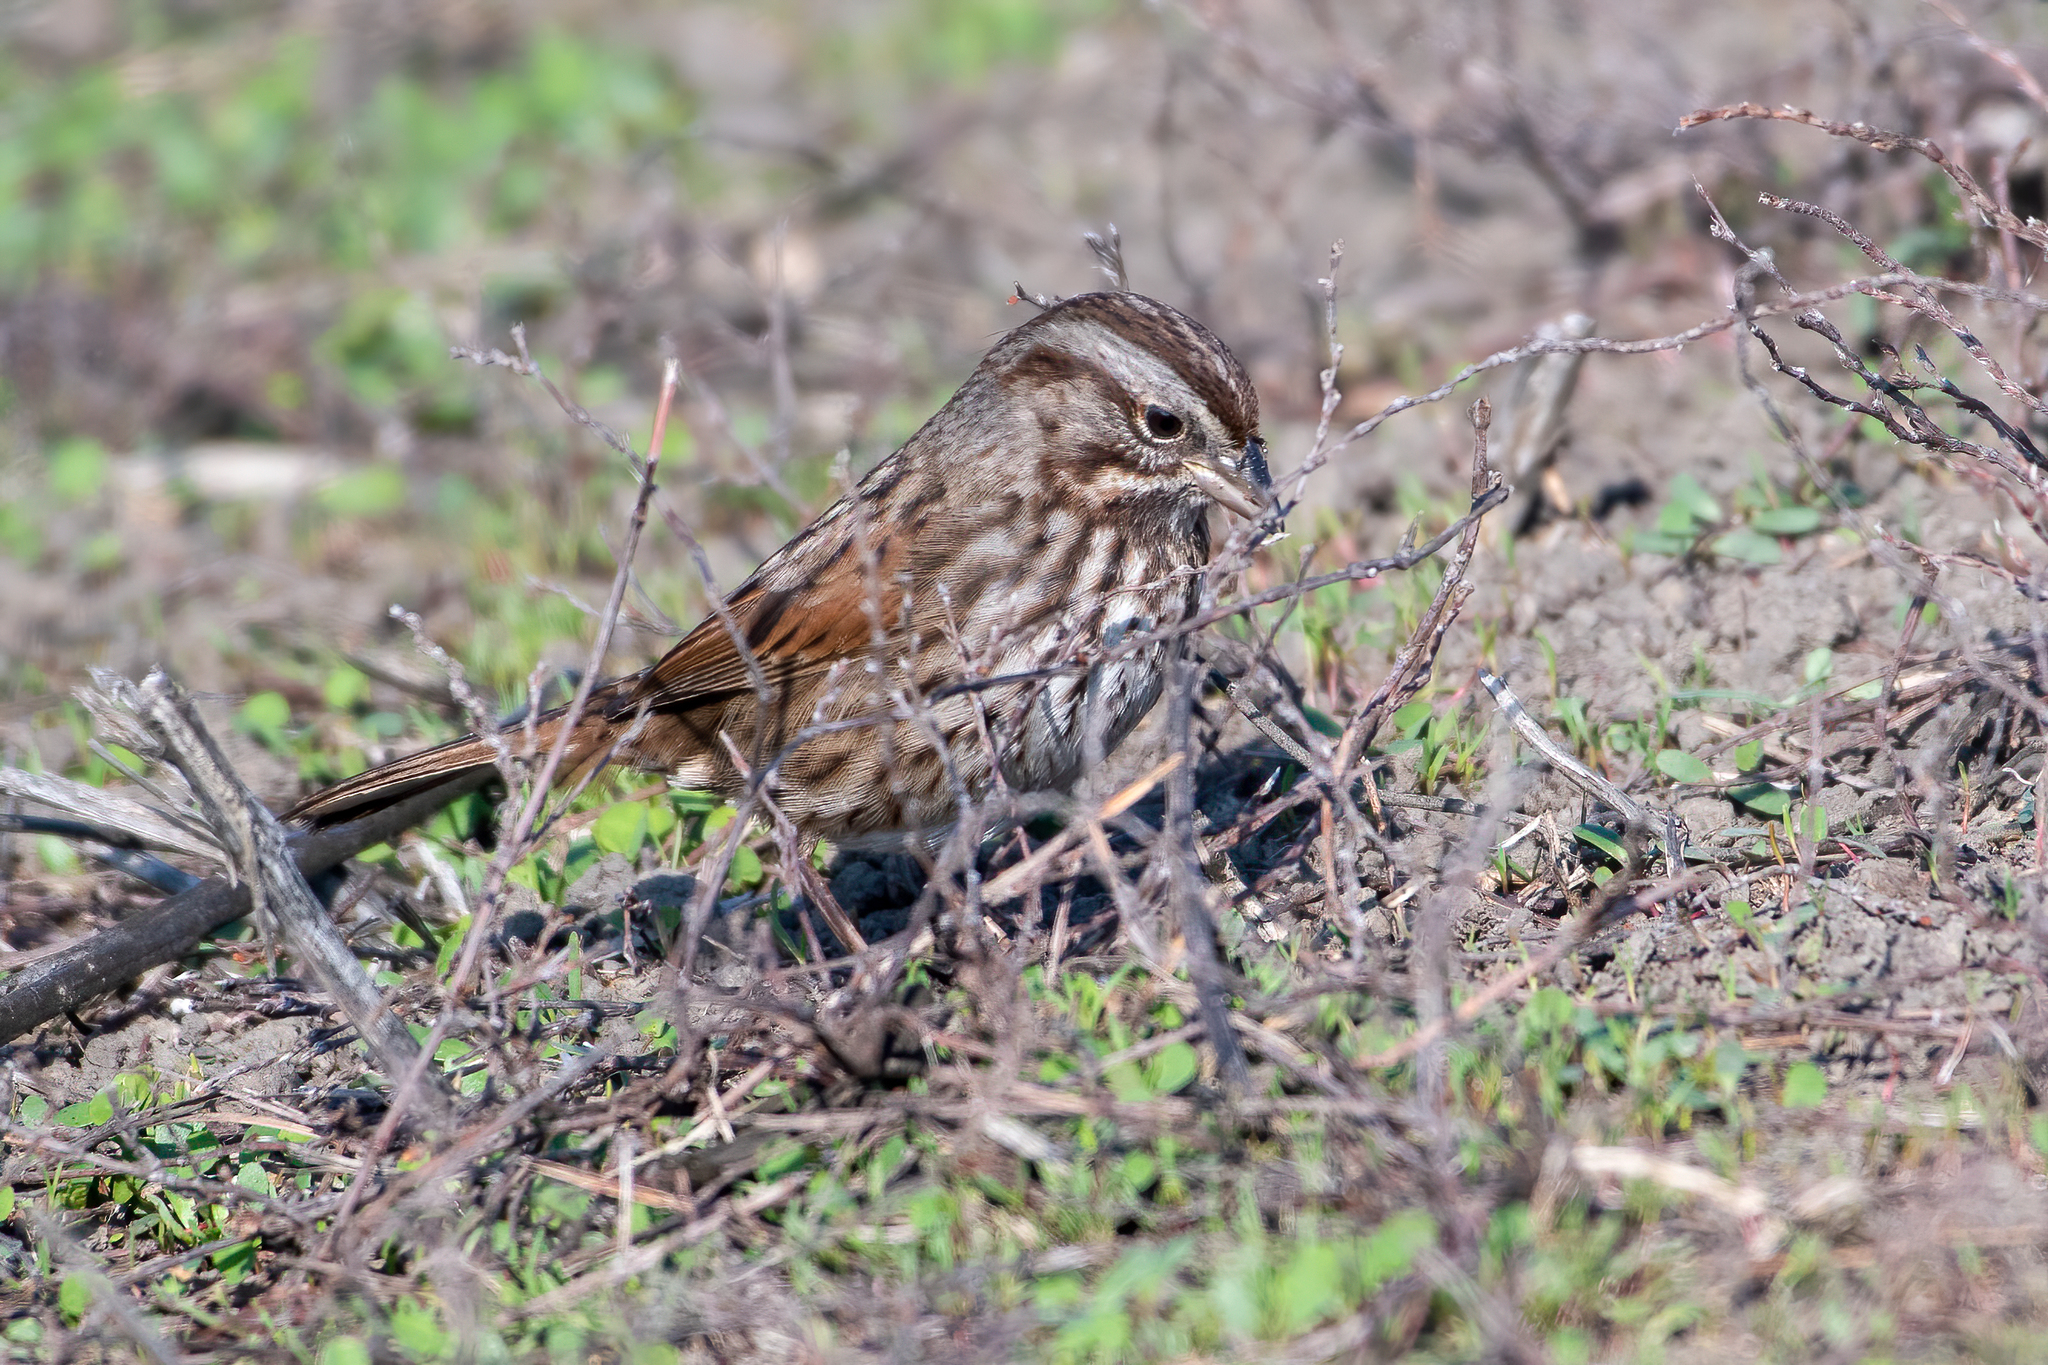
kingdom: Animalia
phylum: Chordata
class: Aves
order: Passeriformes
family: Passerellidae
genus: Melospiza
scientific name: Melospiza melodia
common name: Song sparrow
